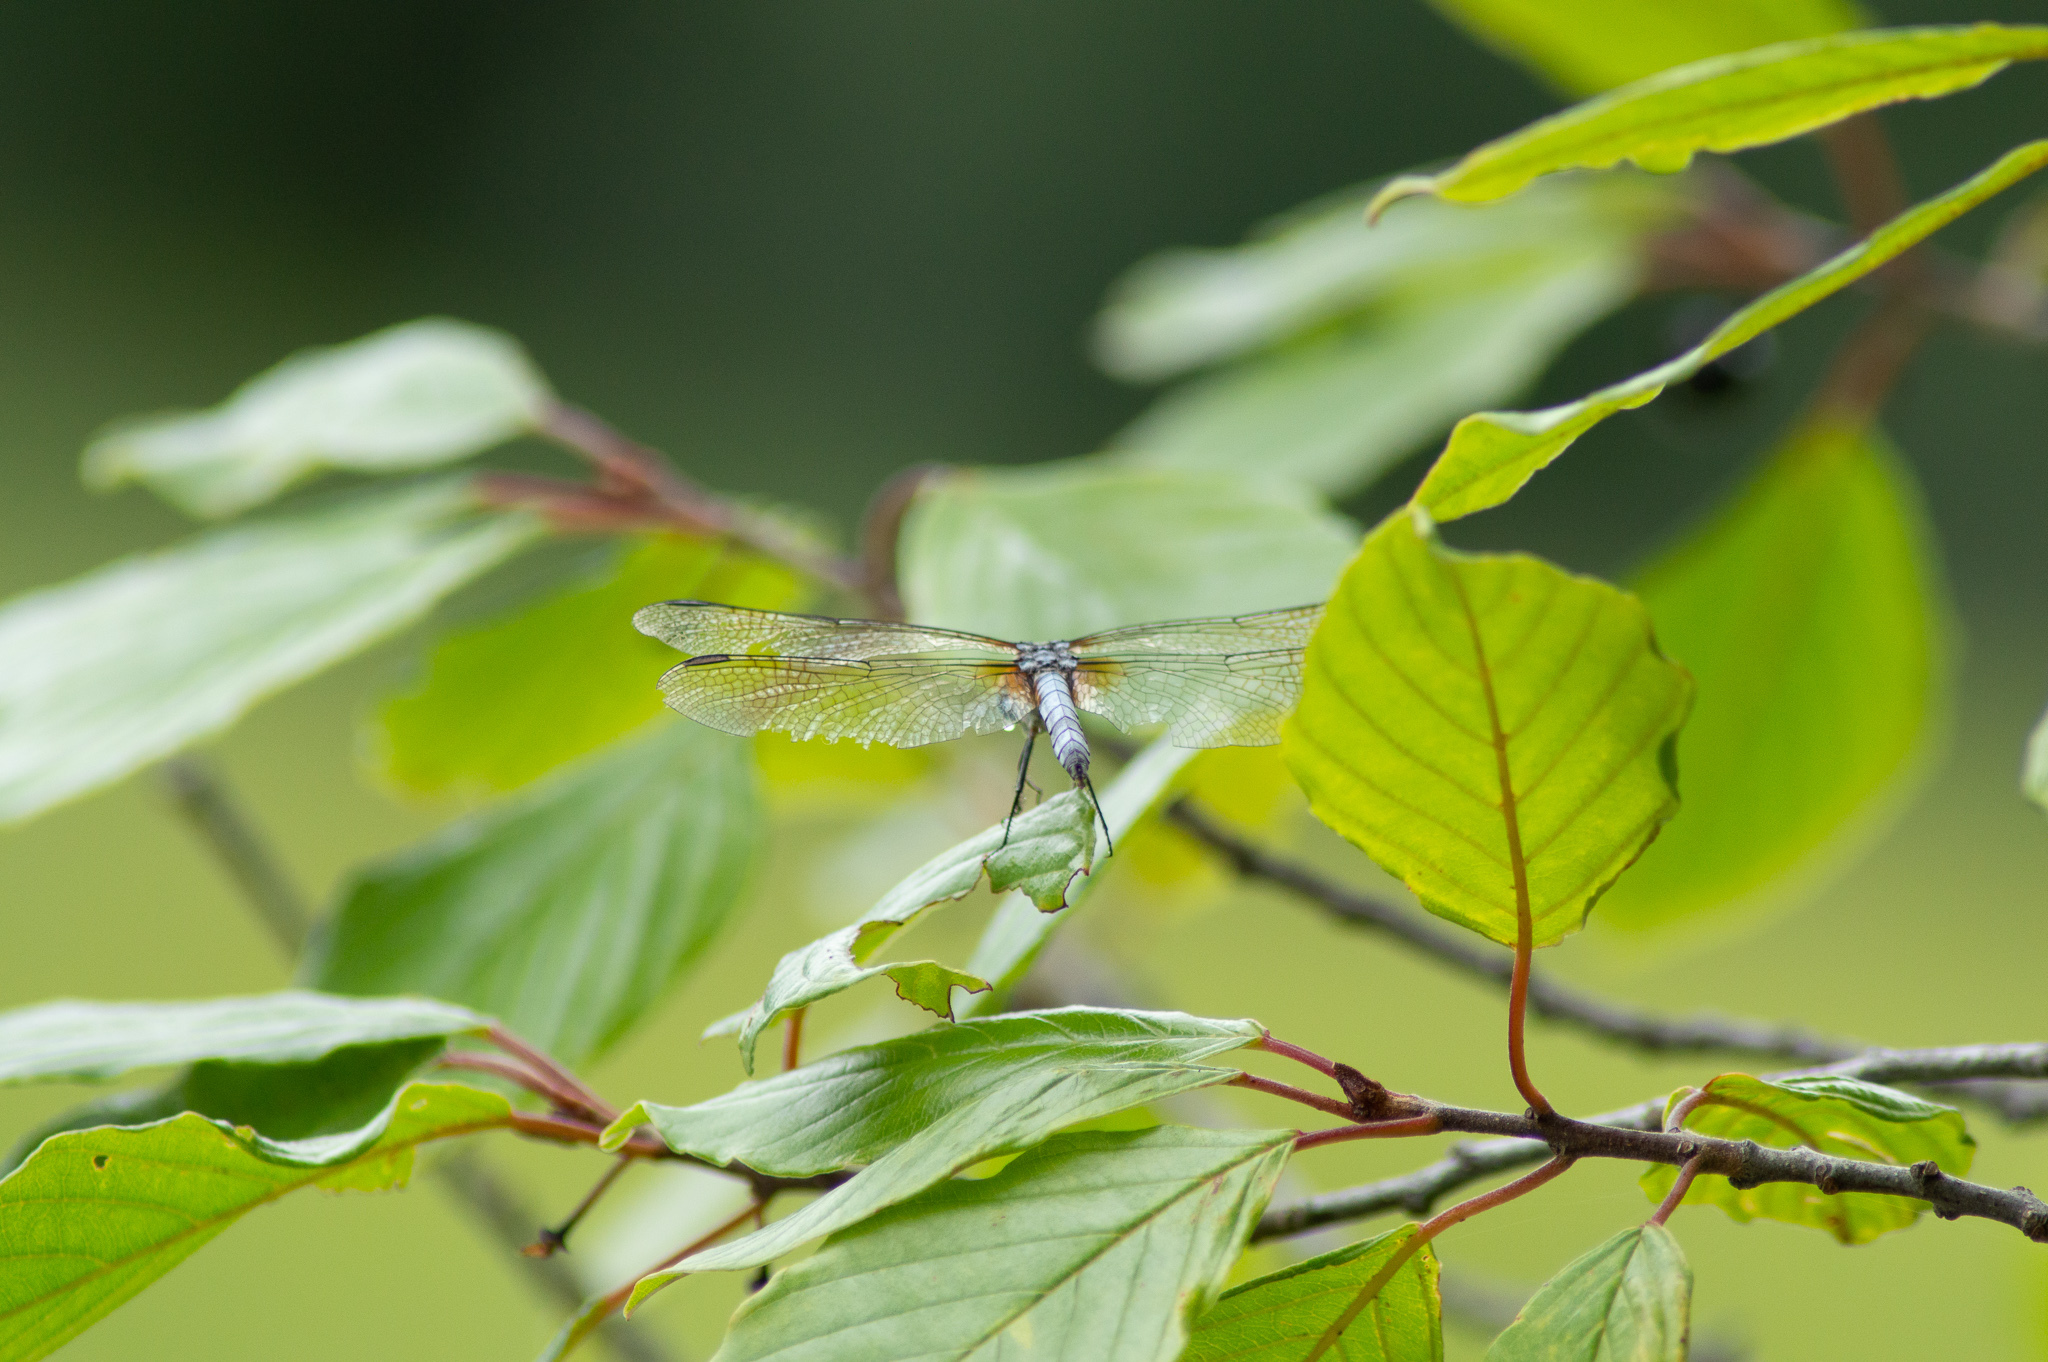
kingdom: Animalia
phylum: Arthropoda
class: Insecta
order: Odonata
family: Libellulidae
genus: Pachydiplax
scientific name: Pachydiplax longipennis
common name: Blue dasher
